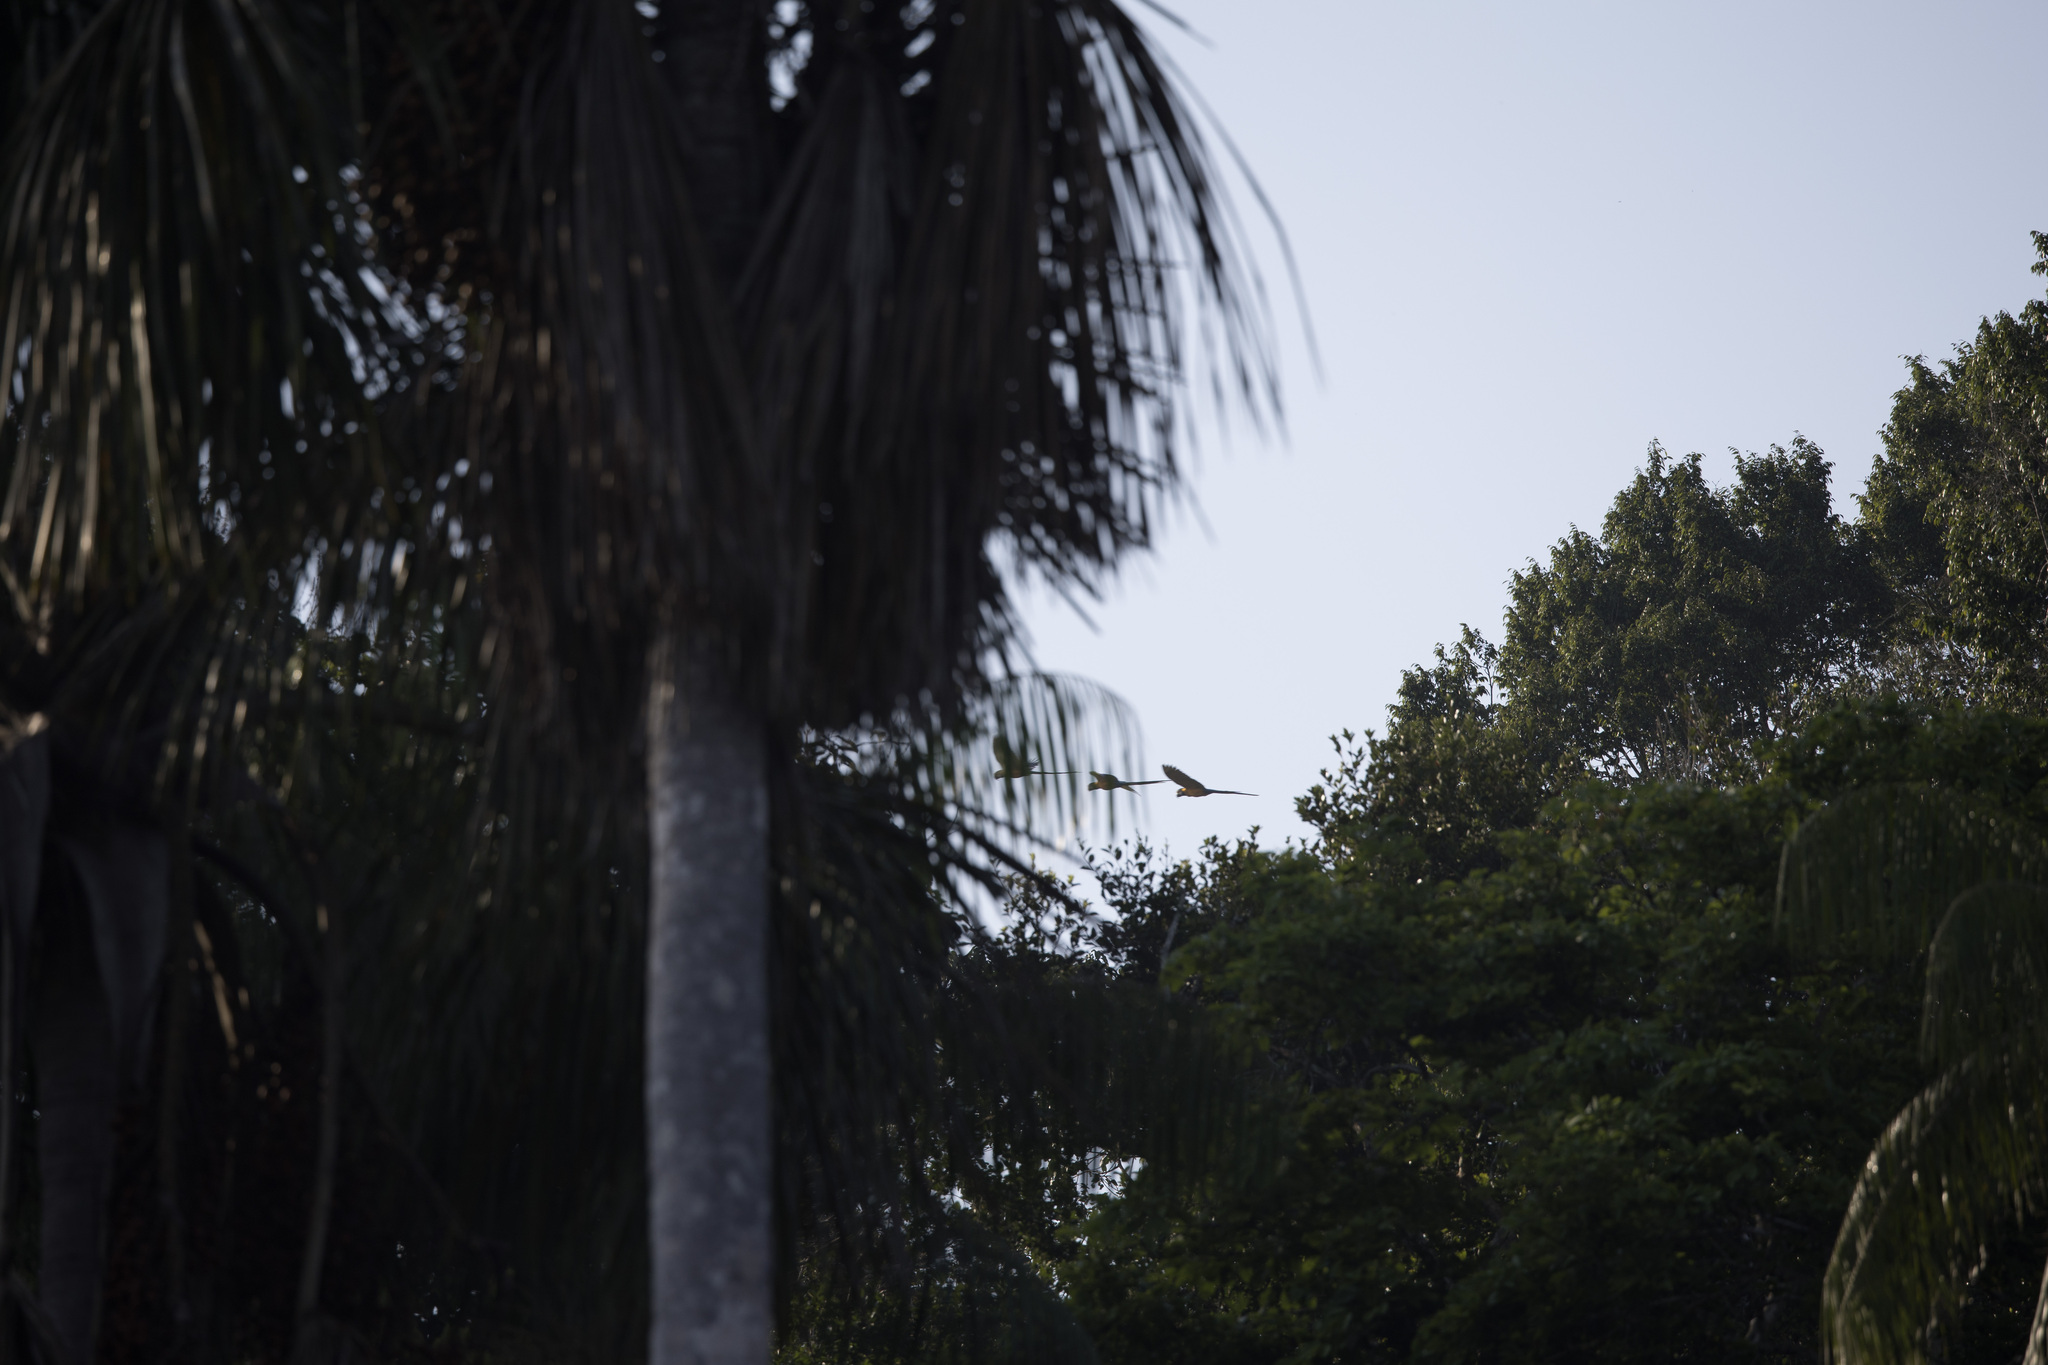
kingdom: Animalia
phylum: Chordata
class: Aves
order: Psittaciformes
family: Psittacidae
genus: Ara
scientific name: Ara ararauna
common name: Blue-and-yellow macaw
